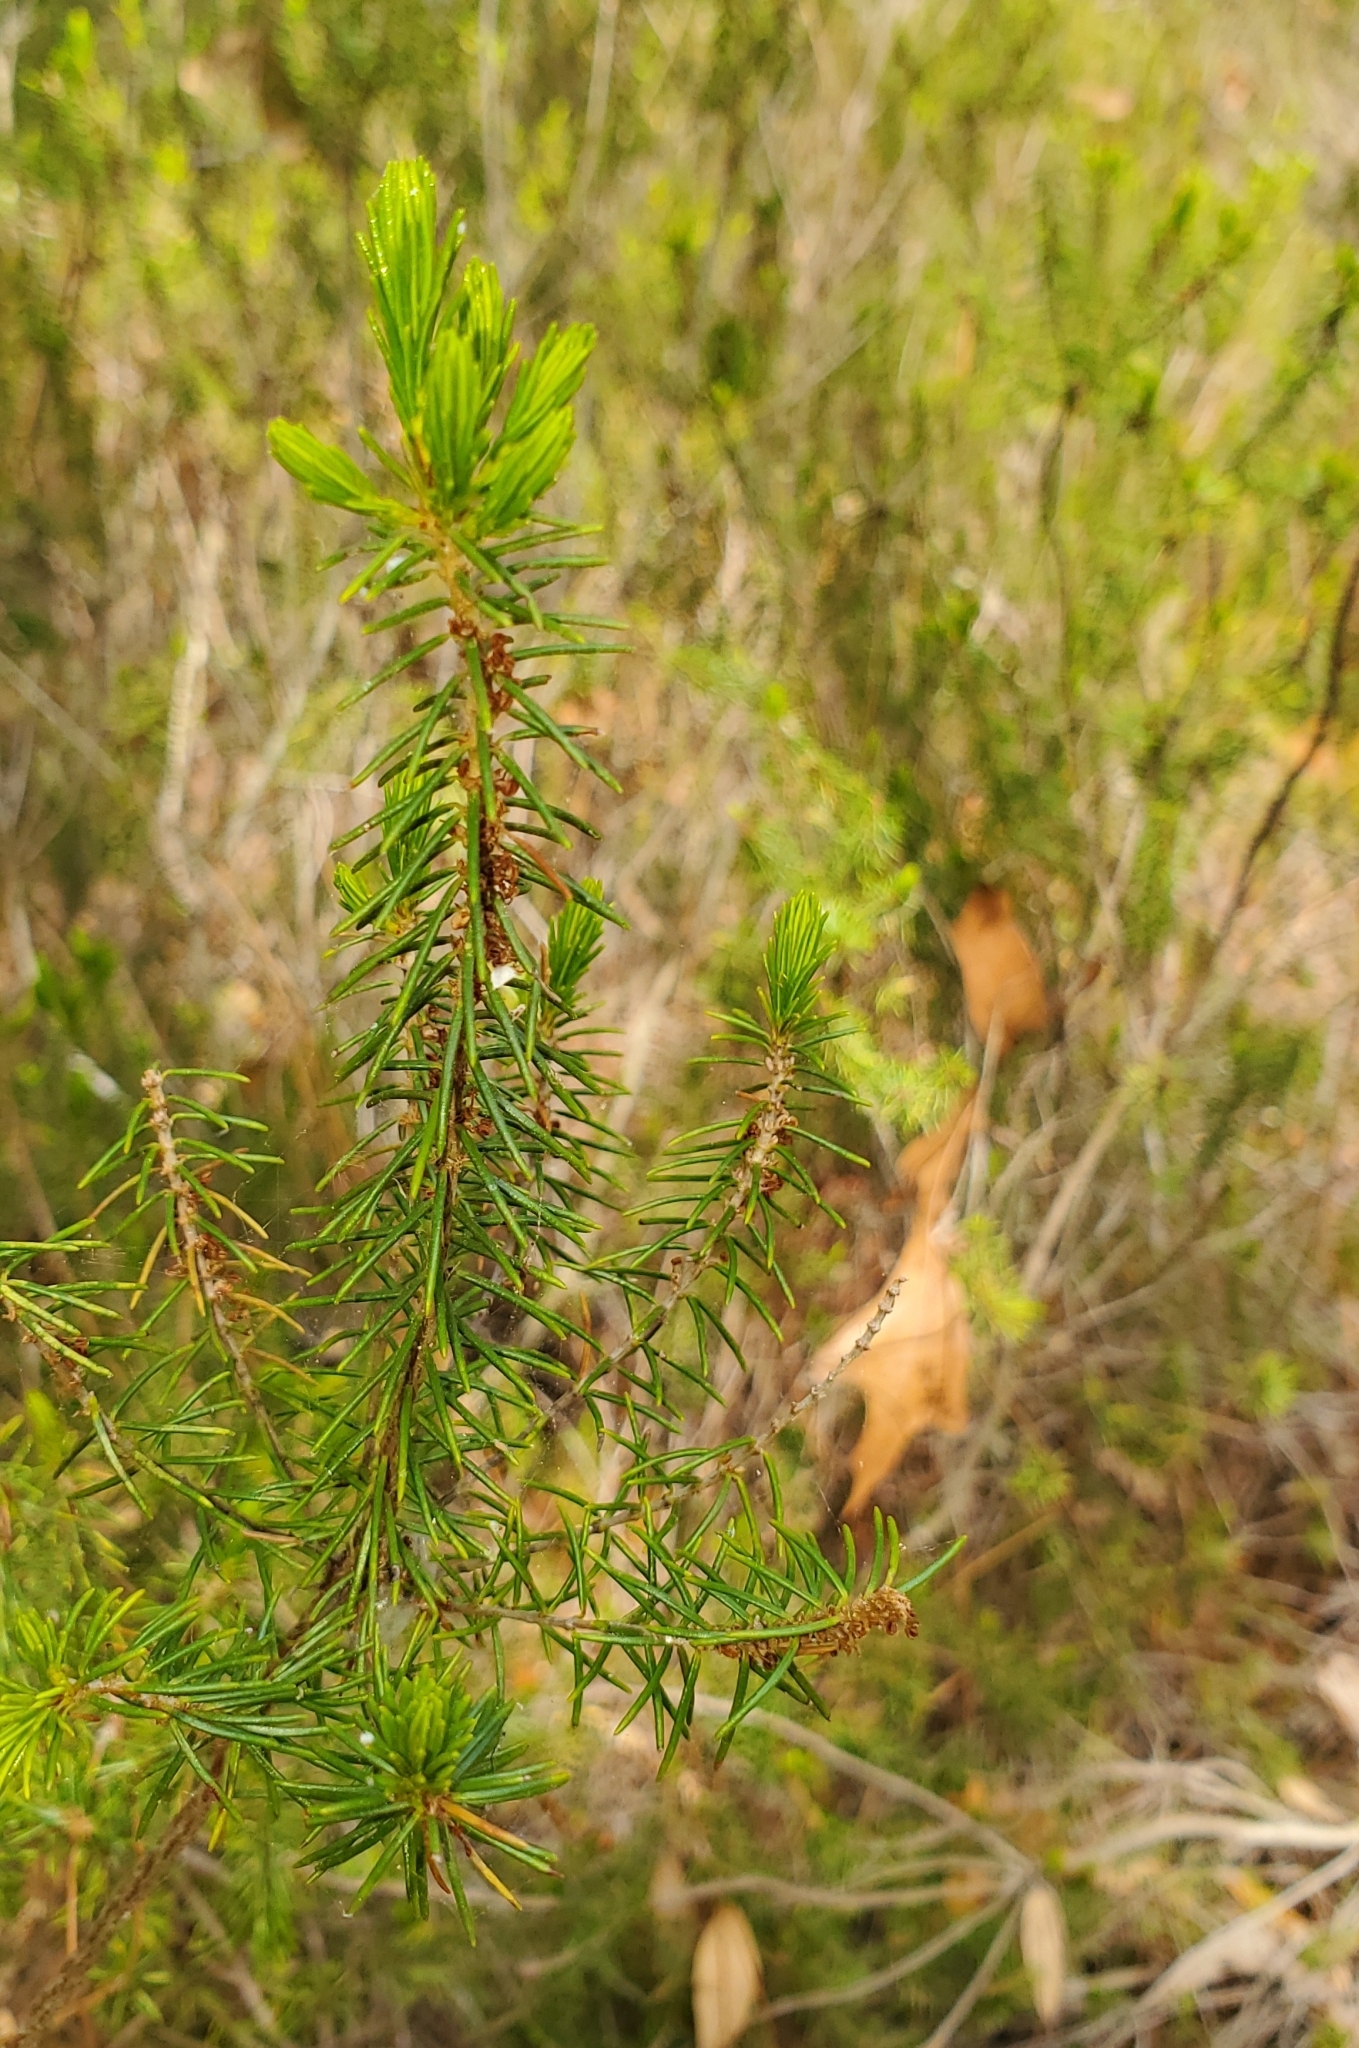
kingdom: Plantae
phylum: Tracheophyta
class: Magnoliopsida
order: Ericales
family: Ericaceae
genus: Ceratiola
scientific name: Ceratiola ericoides
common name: Sandhill-rosemary
